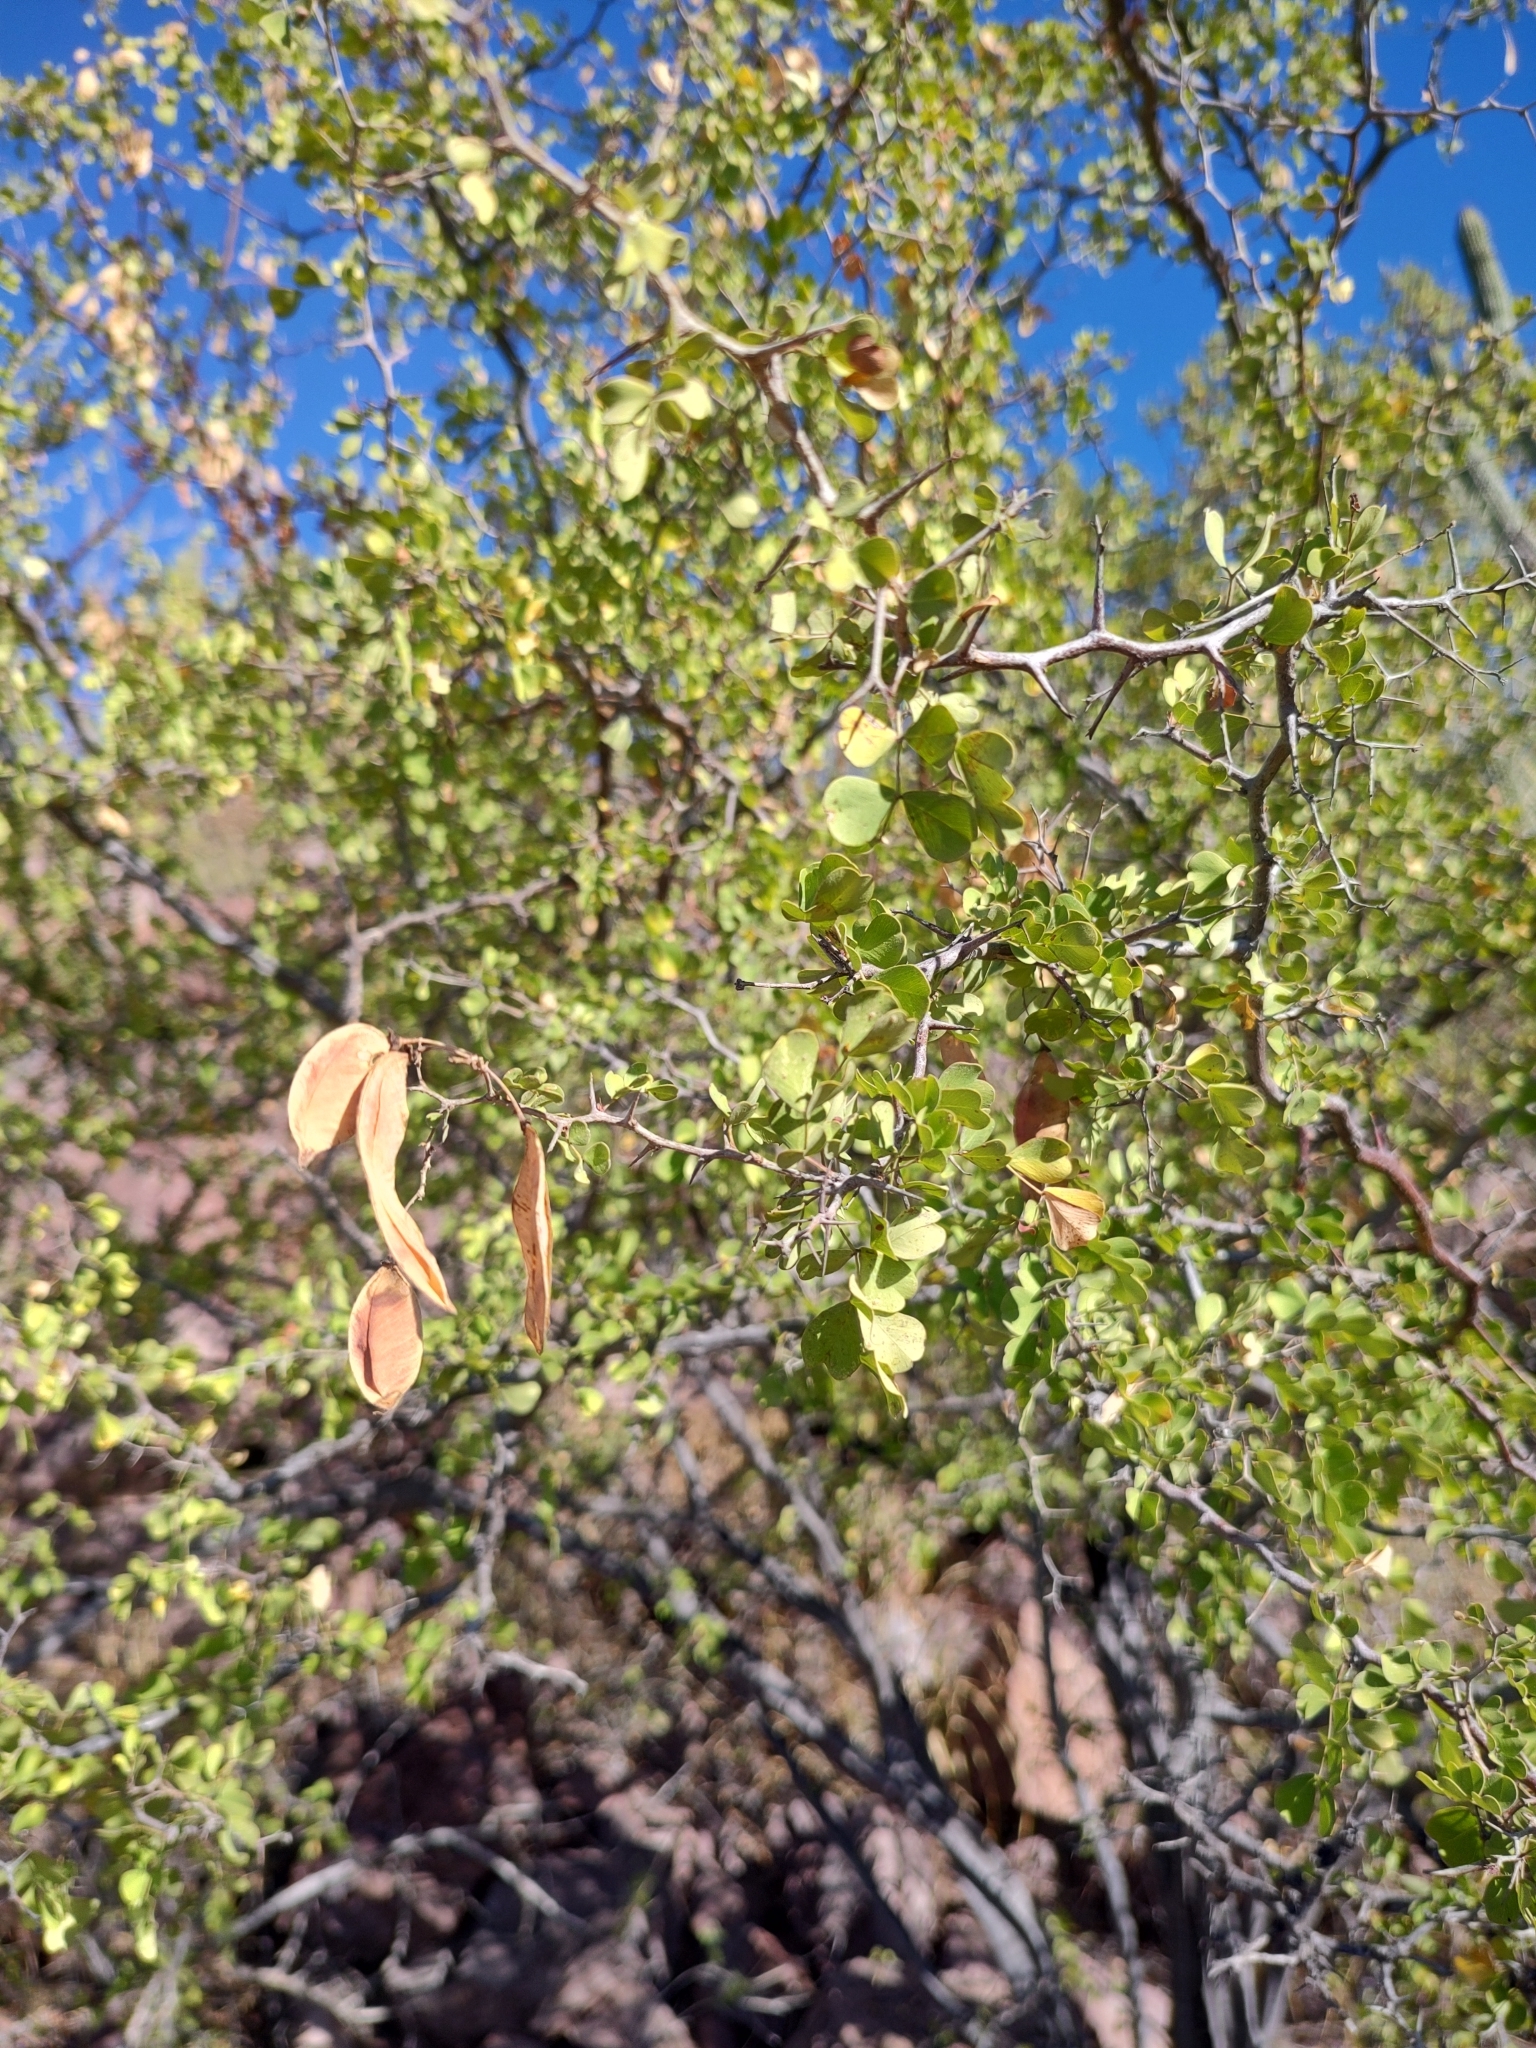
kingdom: Plantae
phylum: Tracheophyta
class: Magnoliopsida
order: Fabales
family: Fabaceae
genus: Haematoxylum
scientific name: Haematoxylum brasiletto
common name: Peachwood
